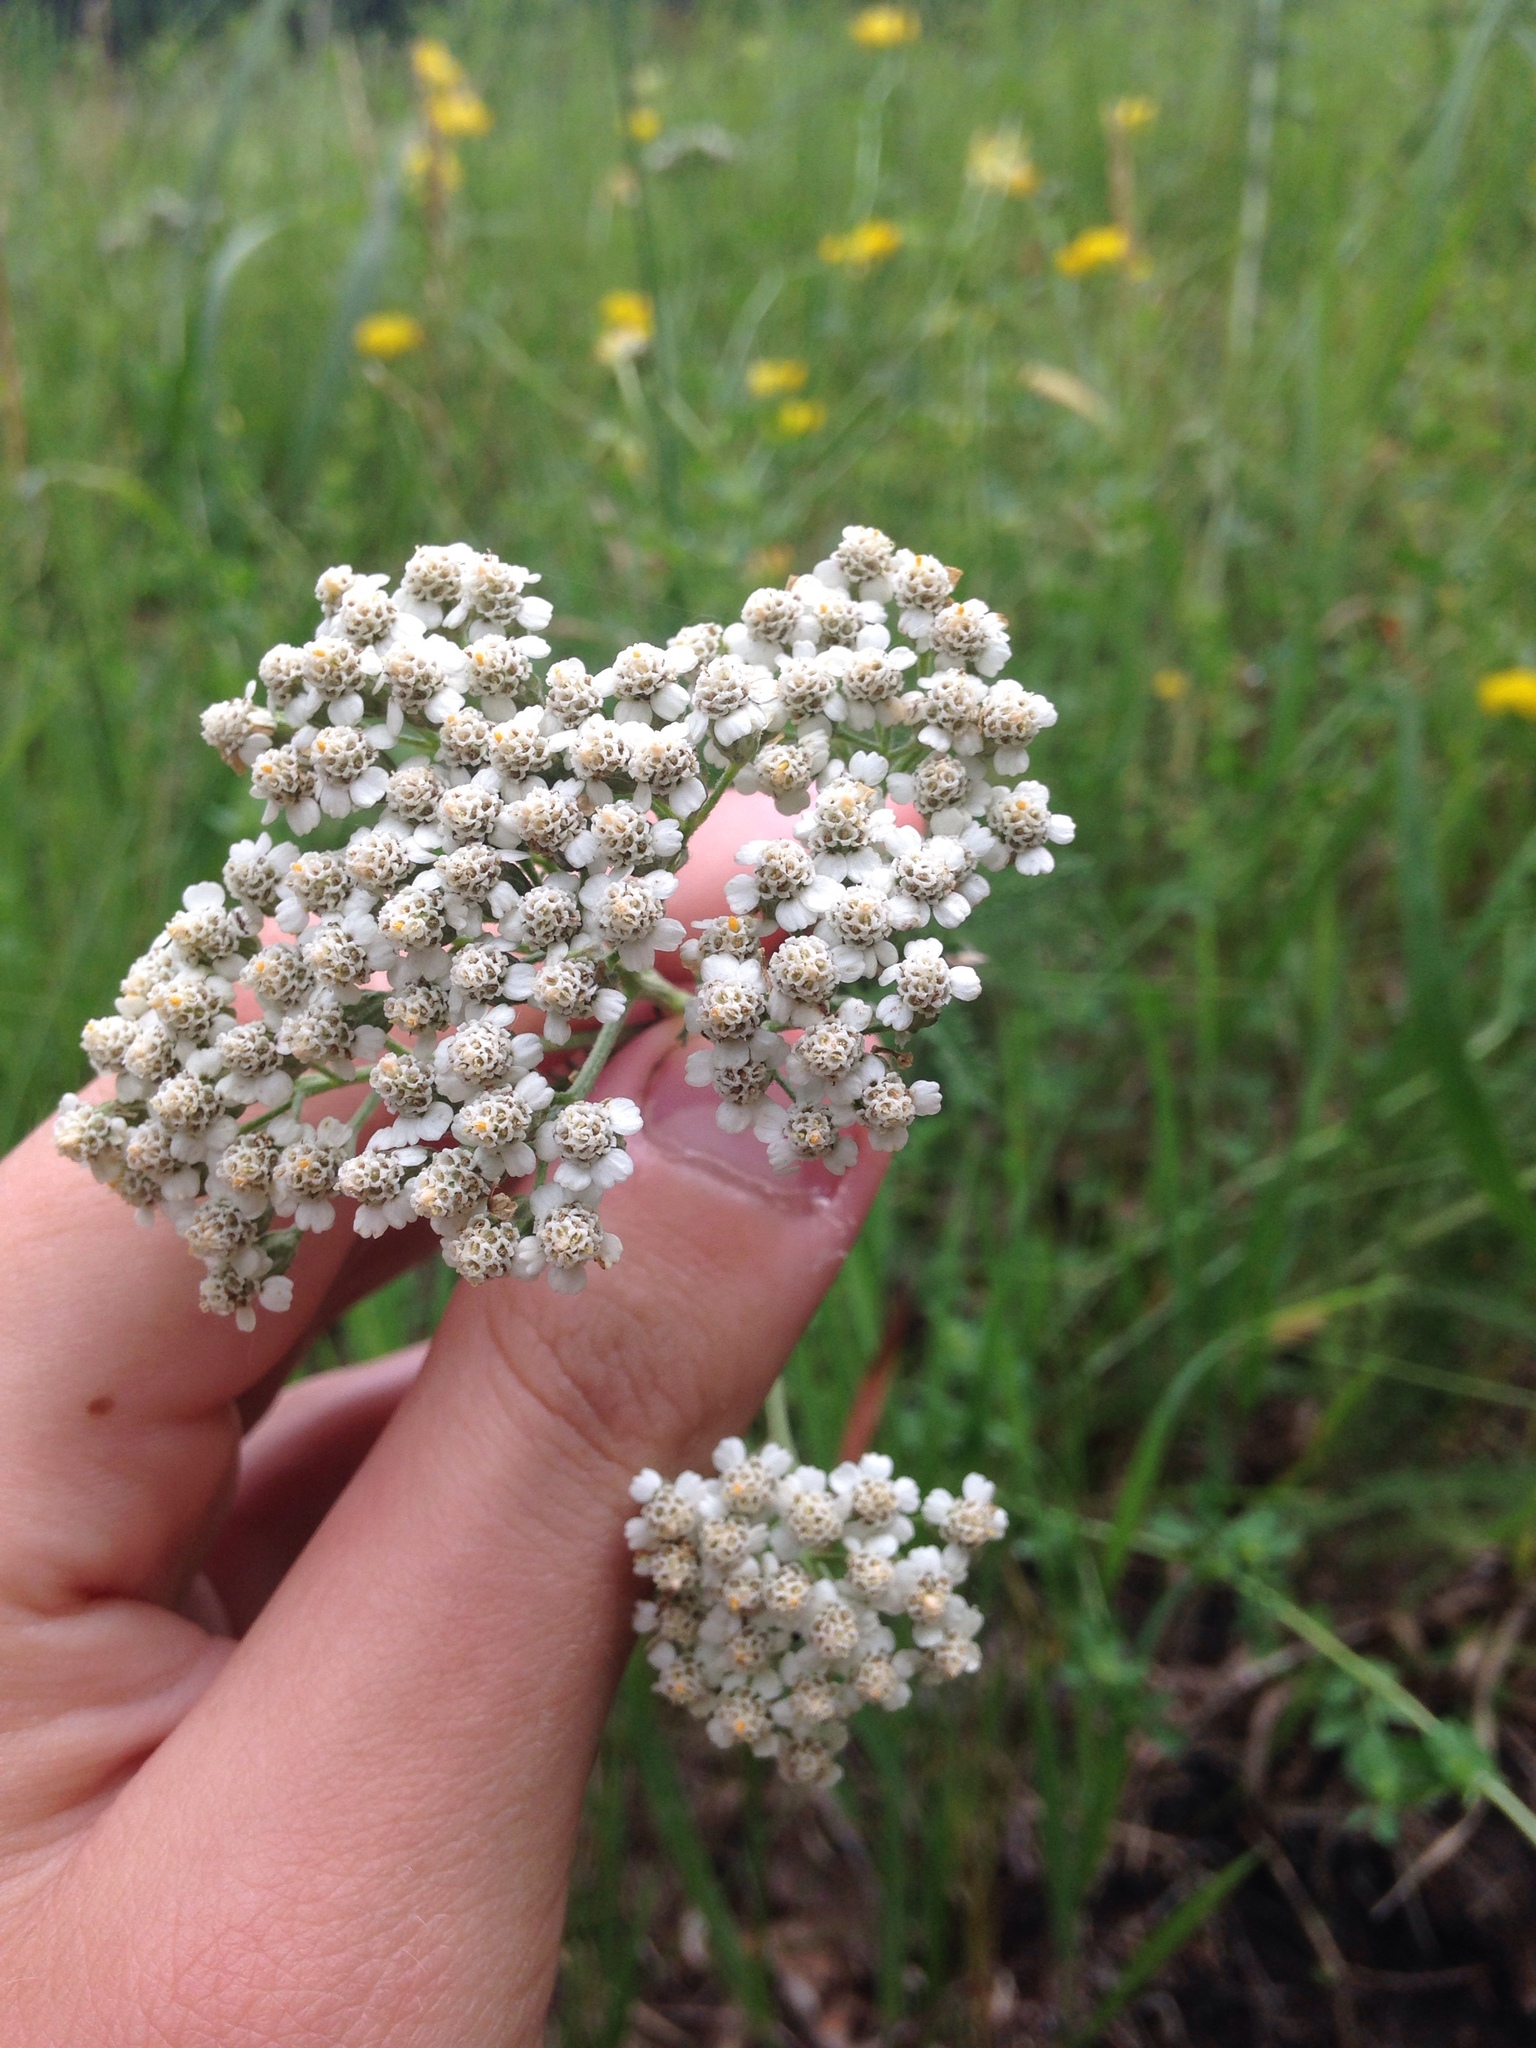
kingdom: Plantae
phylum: Tracheophyta
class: Magnoliopsida
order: Asterales
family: Asteraceae
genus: Achillea
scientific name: Achillea millefolium
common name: Yarrow
